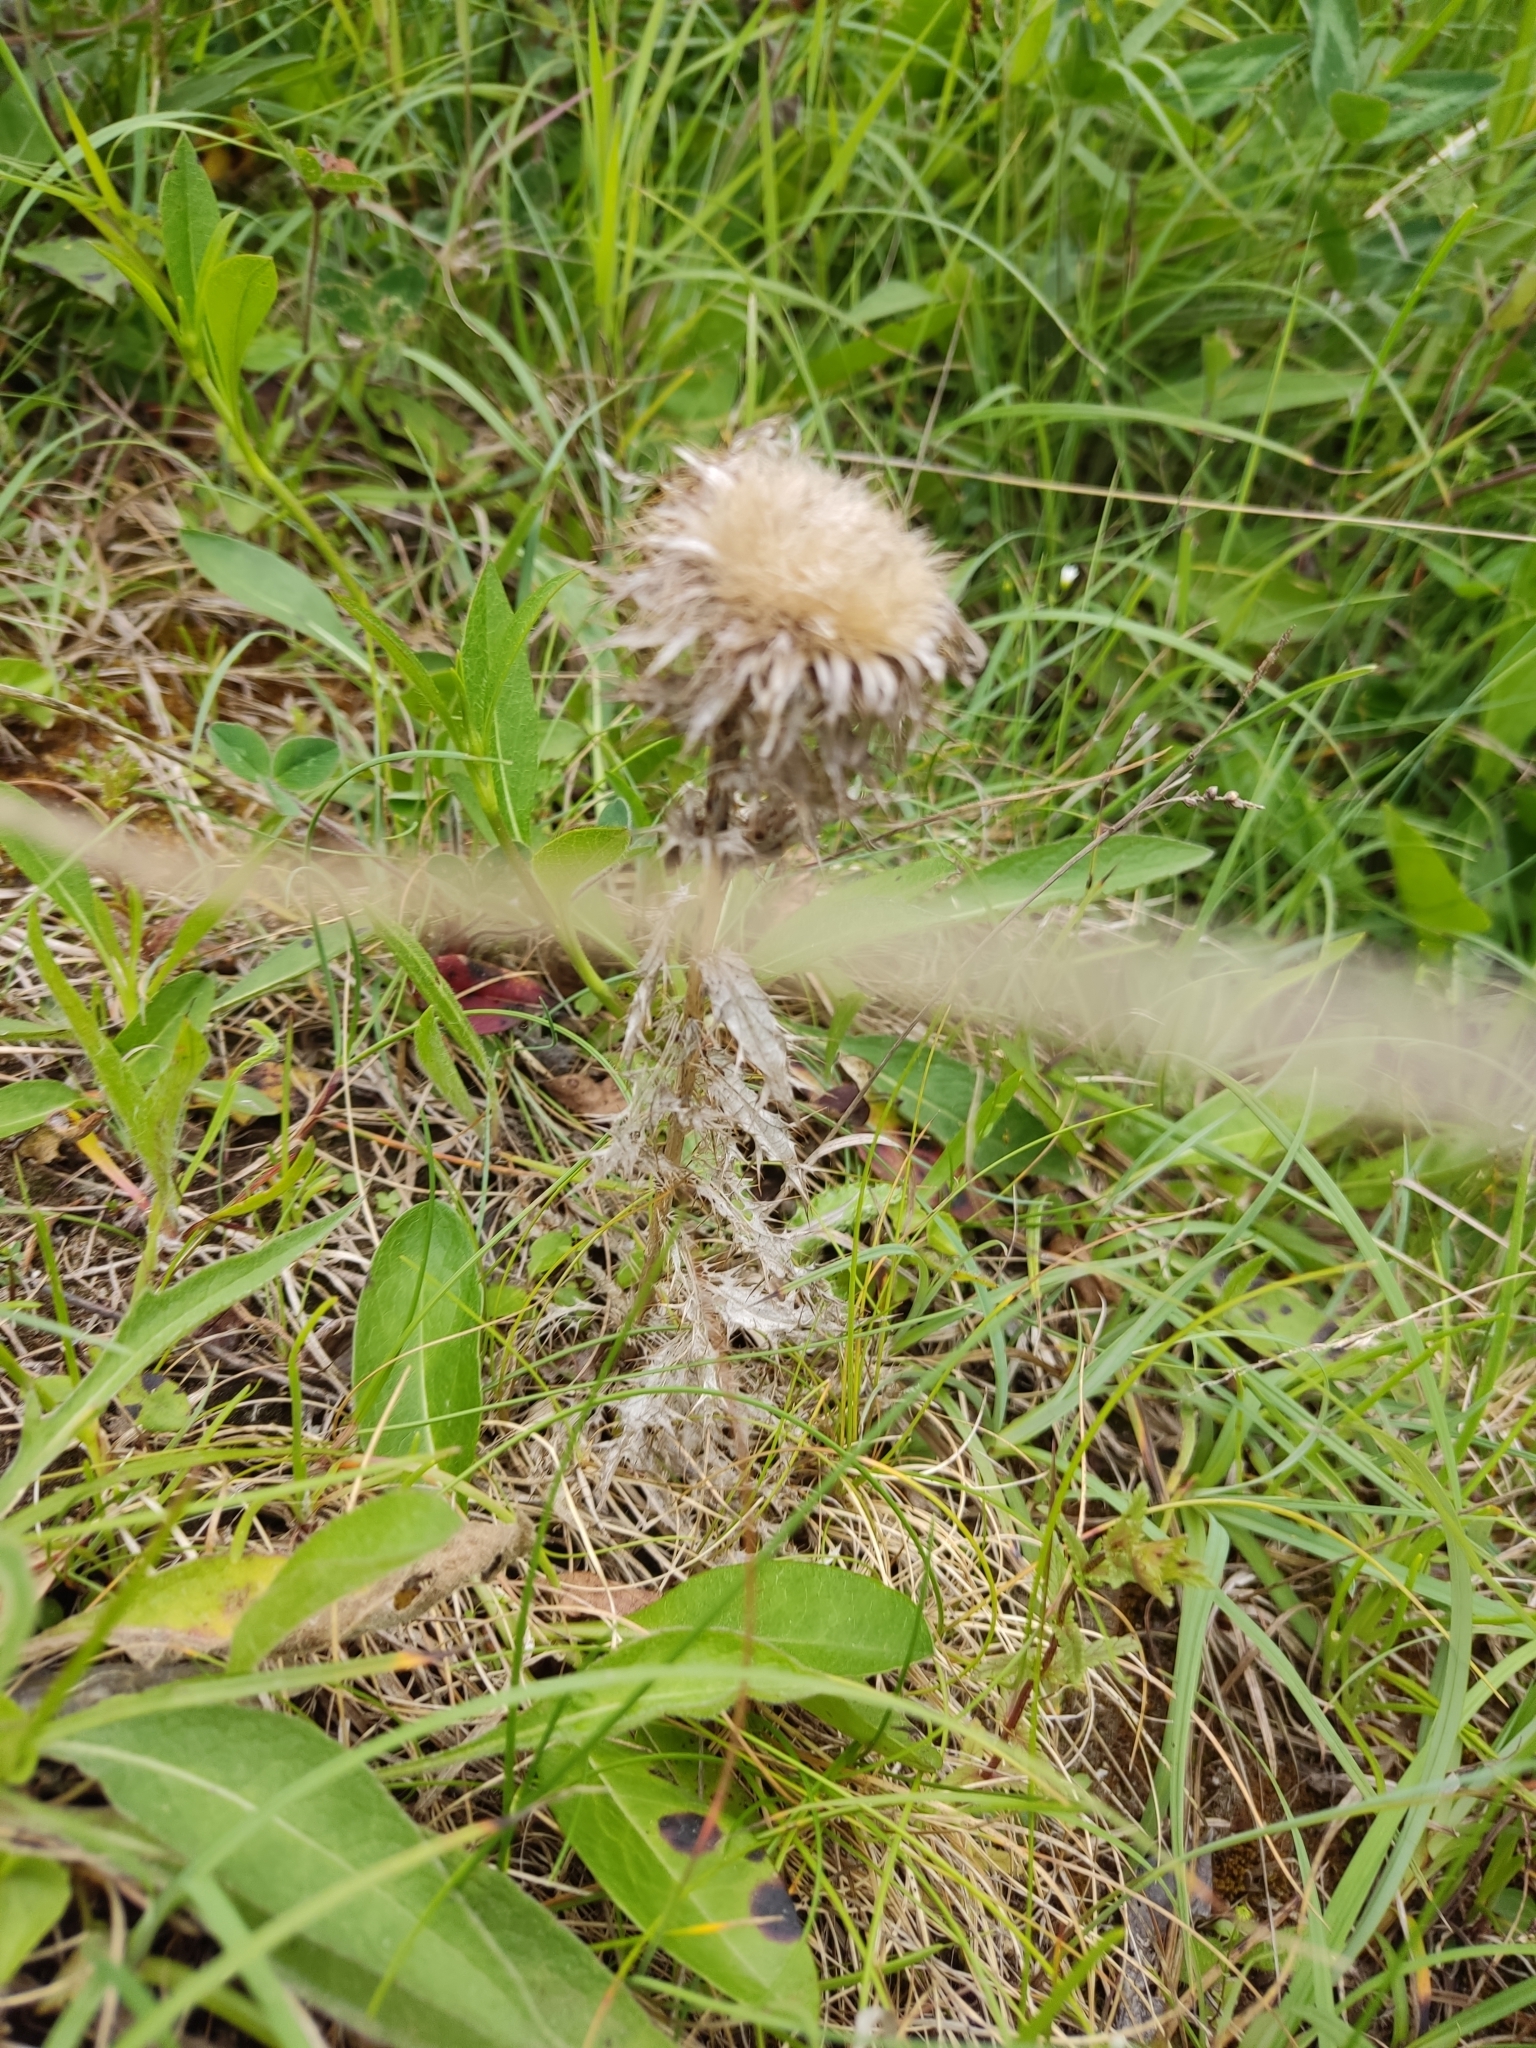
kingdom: Plantae
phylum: Tracheophyta
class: Magnoliopsida
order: Asterales
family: Asteraceae
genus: Carlina
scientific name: Carlina vulgaris
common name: Carline thistle
